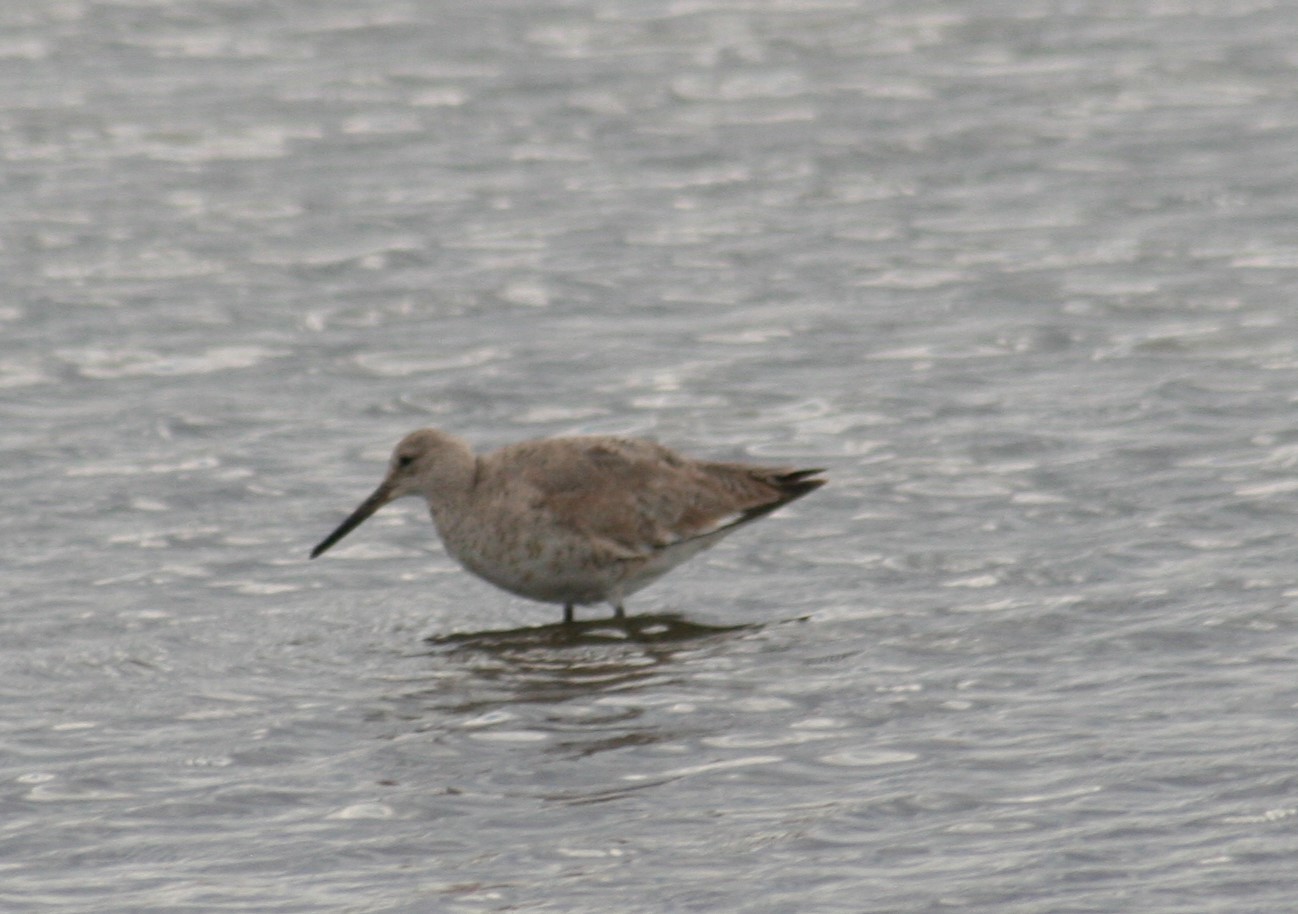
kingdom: Animalia
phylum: Chordata
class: Aves
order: Charadriiformes
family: Scolopacidae
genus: Tringa
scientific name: Tringa semipalmata
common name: Willet
